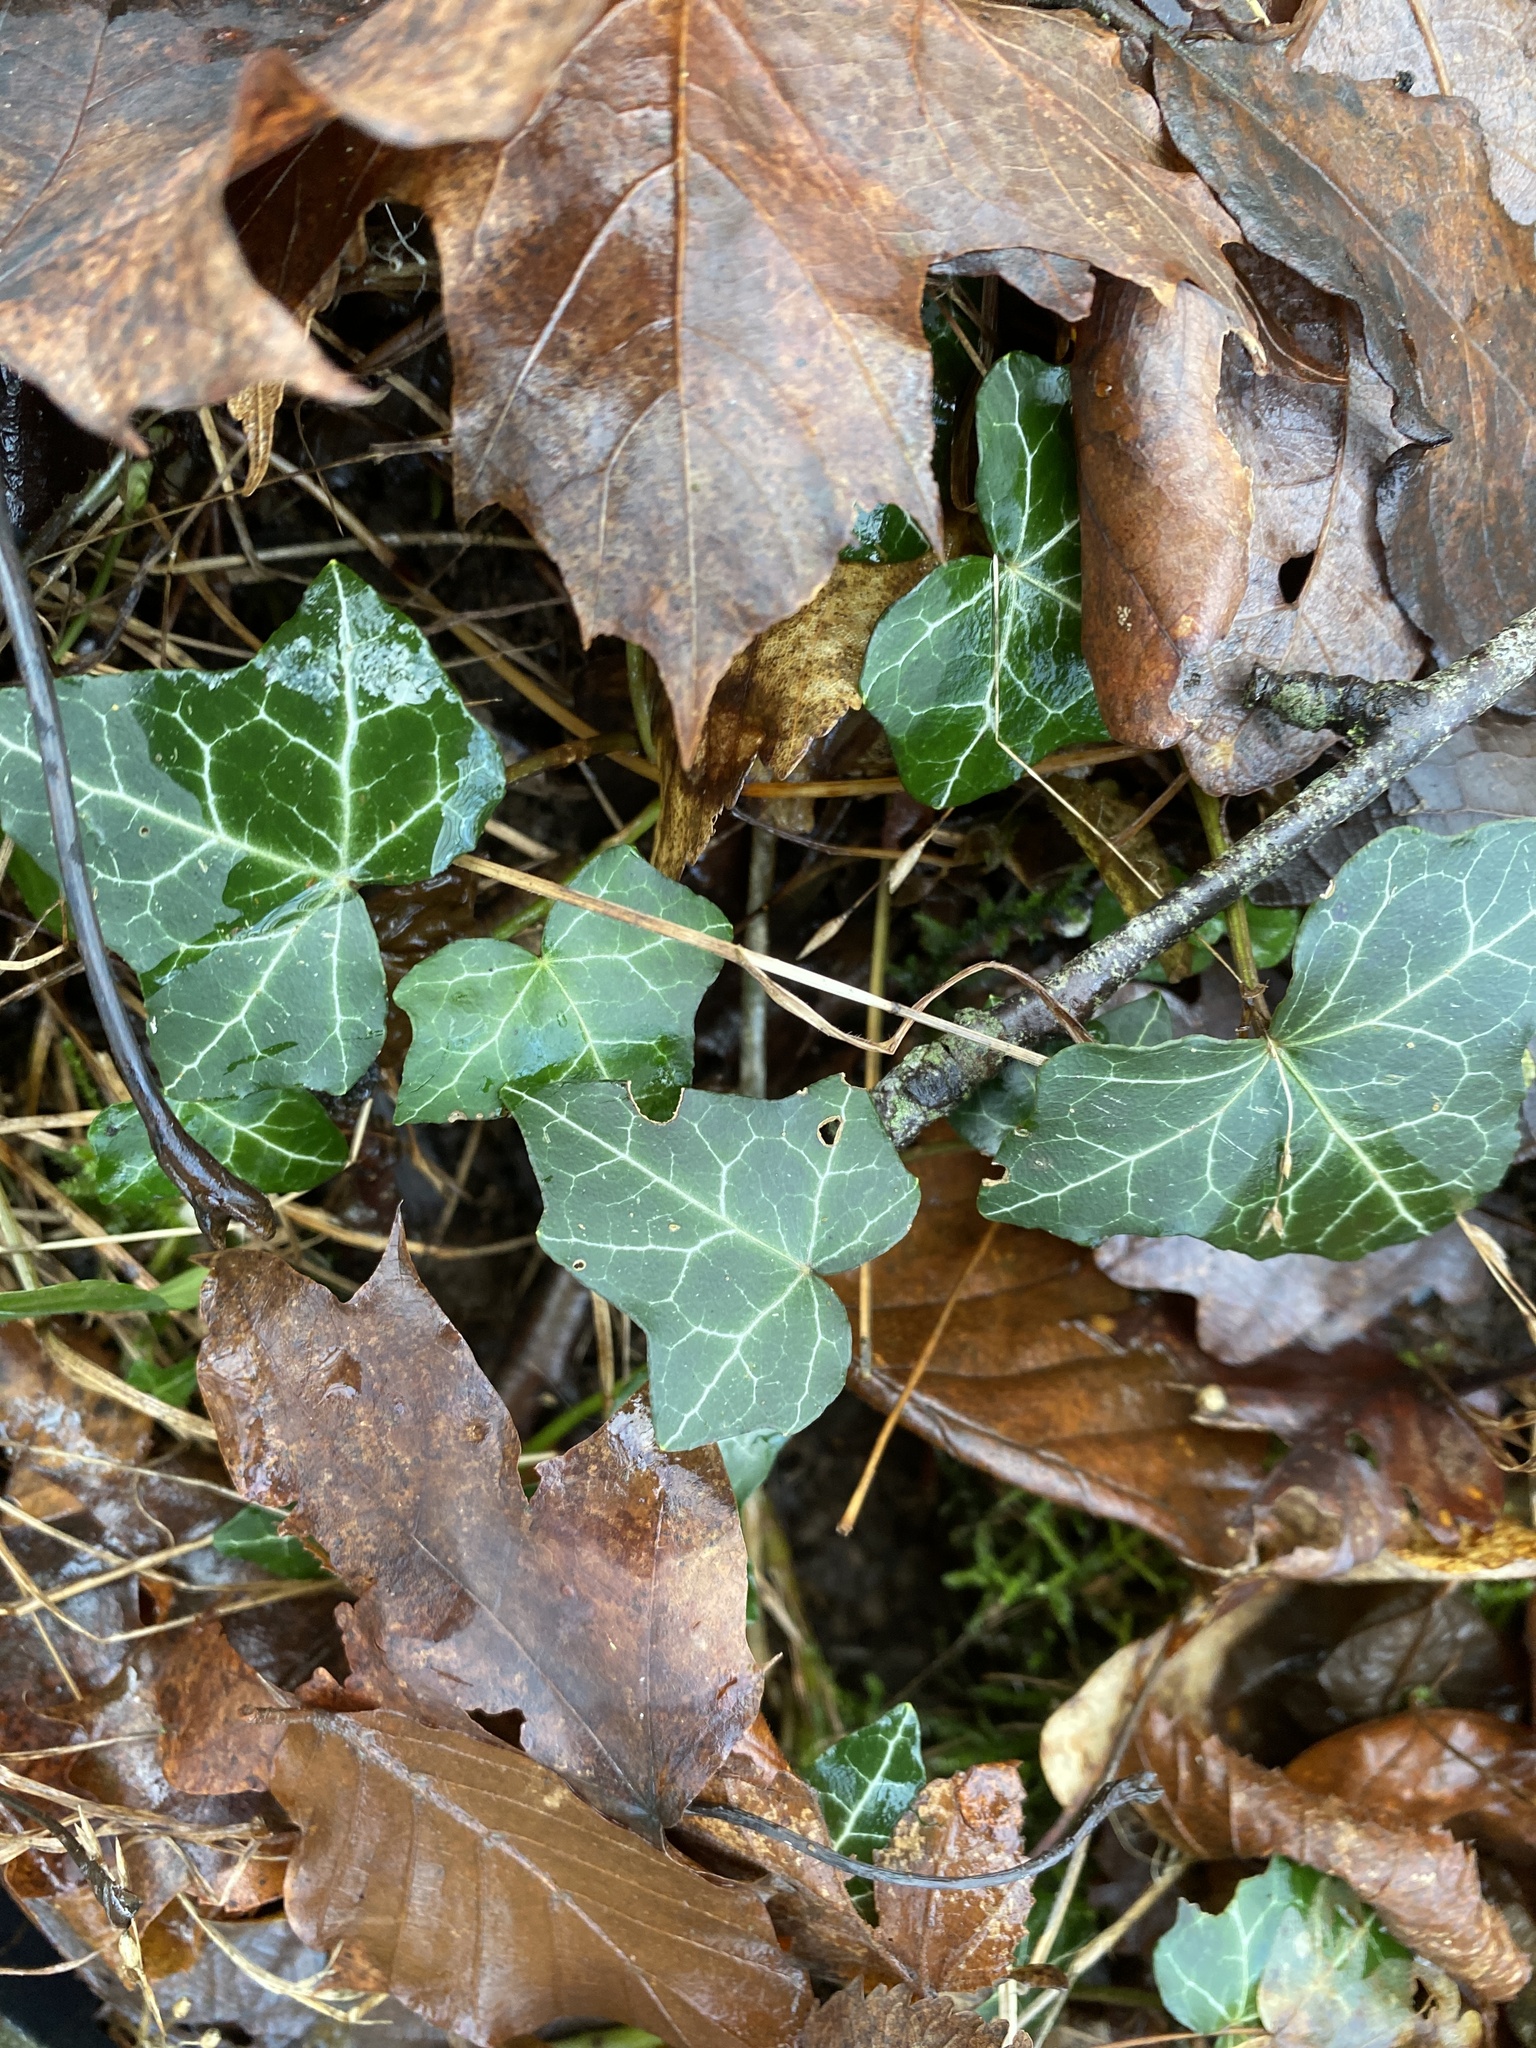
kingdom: Plantae
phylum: Tracheophyta
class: Magnoliopsida
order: Apiales
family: Araliaceae
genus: Hedera
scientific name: Hedera helix
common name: Ivy
